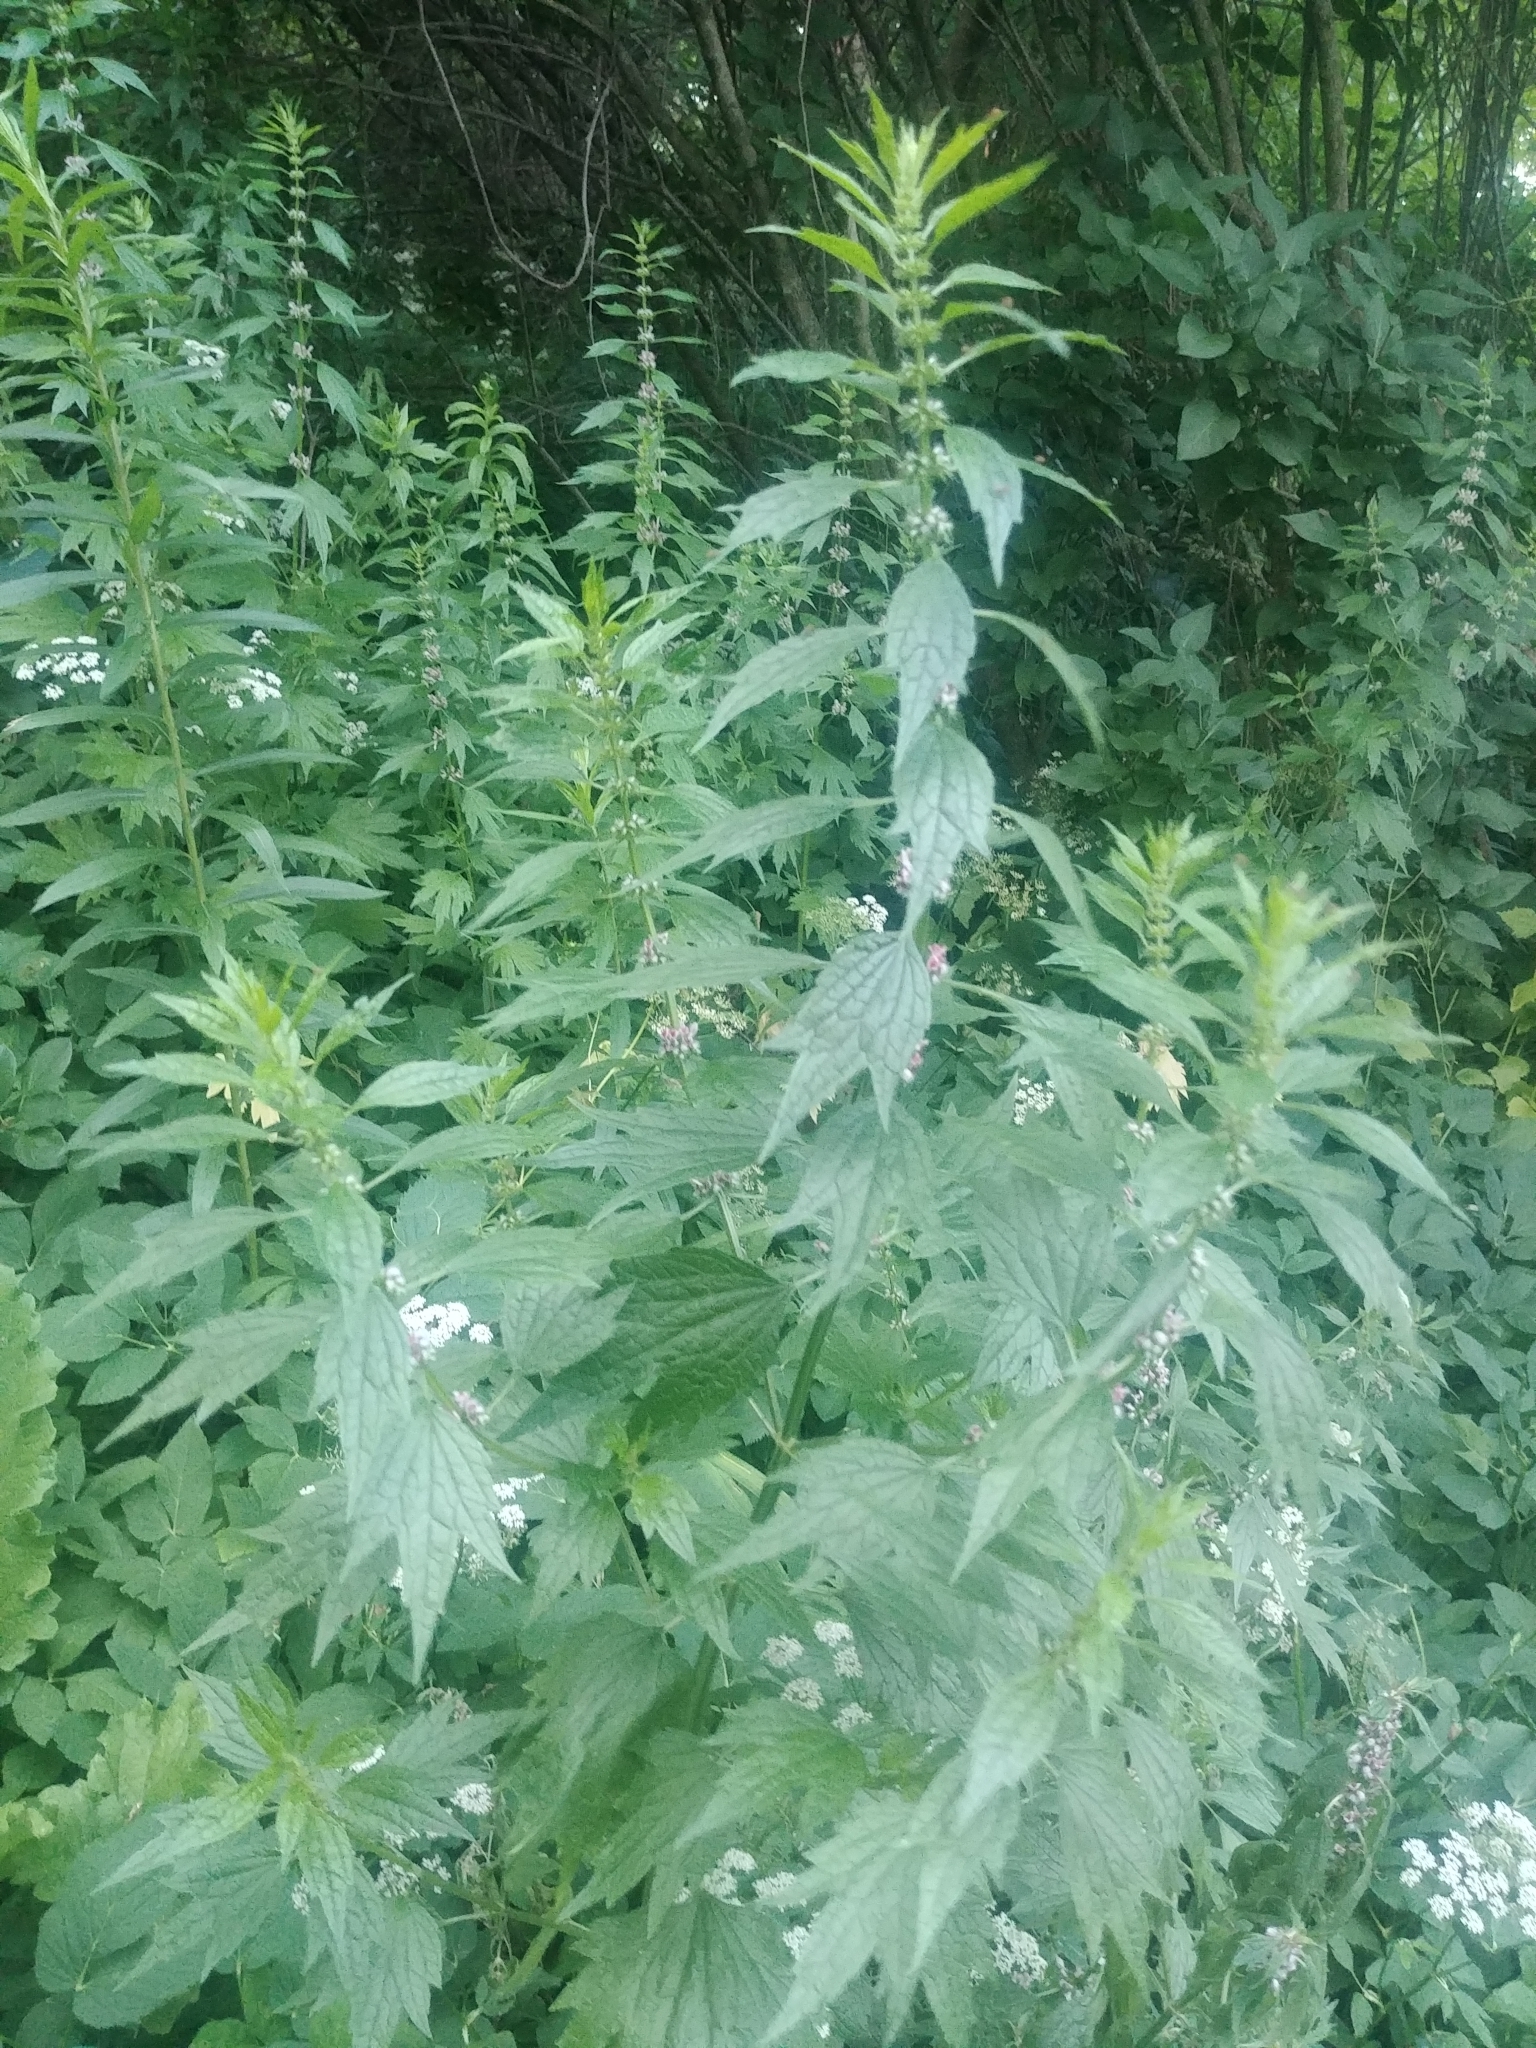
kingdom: Plantae
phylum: Tracheophyta
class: Magnoliopsida
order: Lamiales
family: Lamiaceae
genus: Leonurus
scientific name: Leonurus cardiaca
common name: Motherwort
